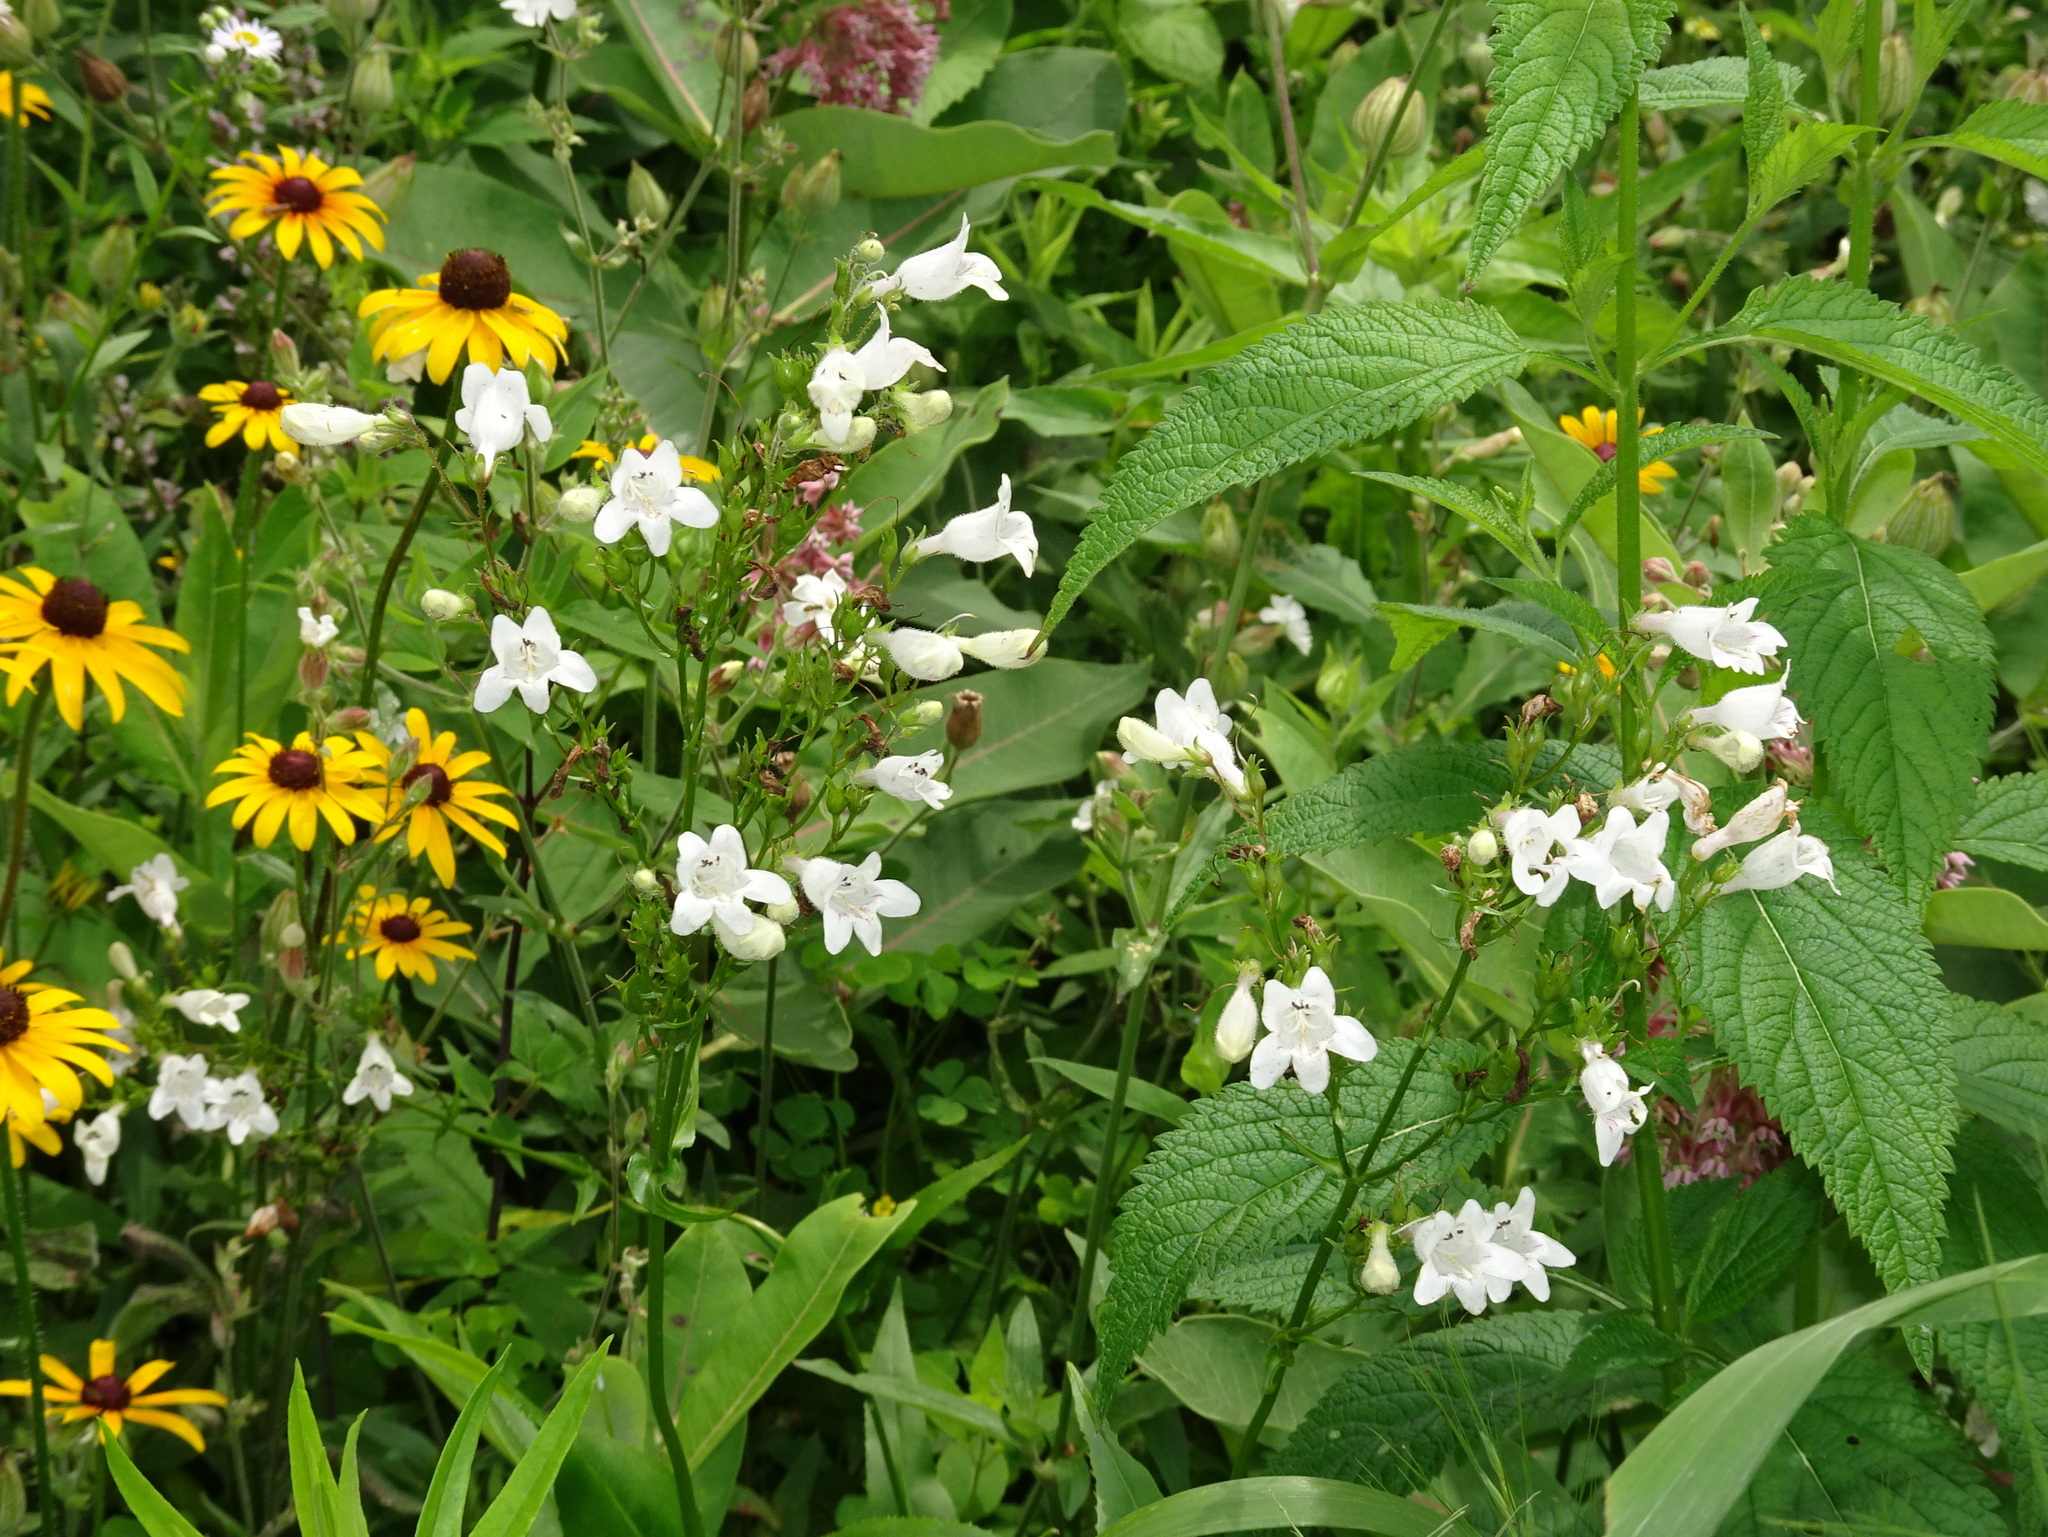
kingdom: Plantae
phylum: Tracheophyta
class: Magnoliopsida
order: Lamiales
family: Plantaginaceae
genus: Penstemon
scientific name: Penstemon digitalis
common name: Foxglove beardtongue
